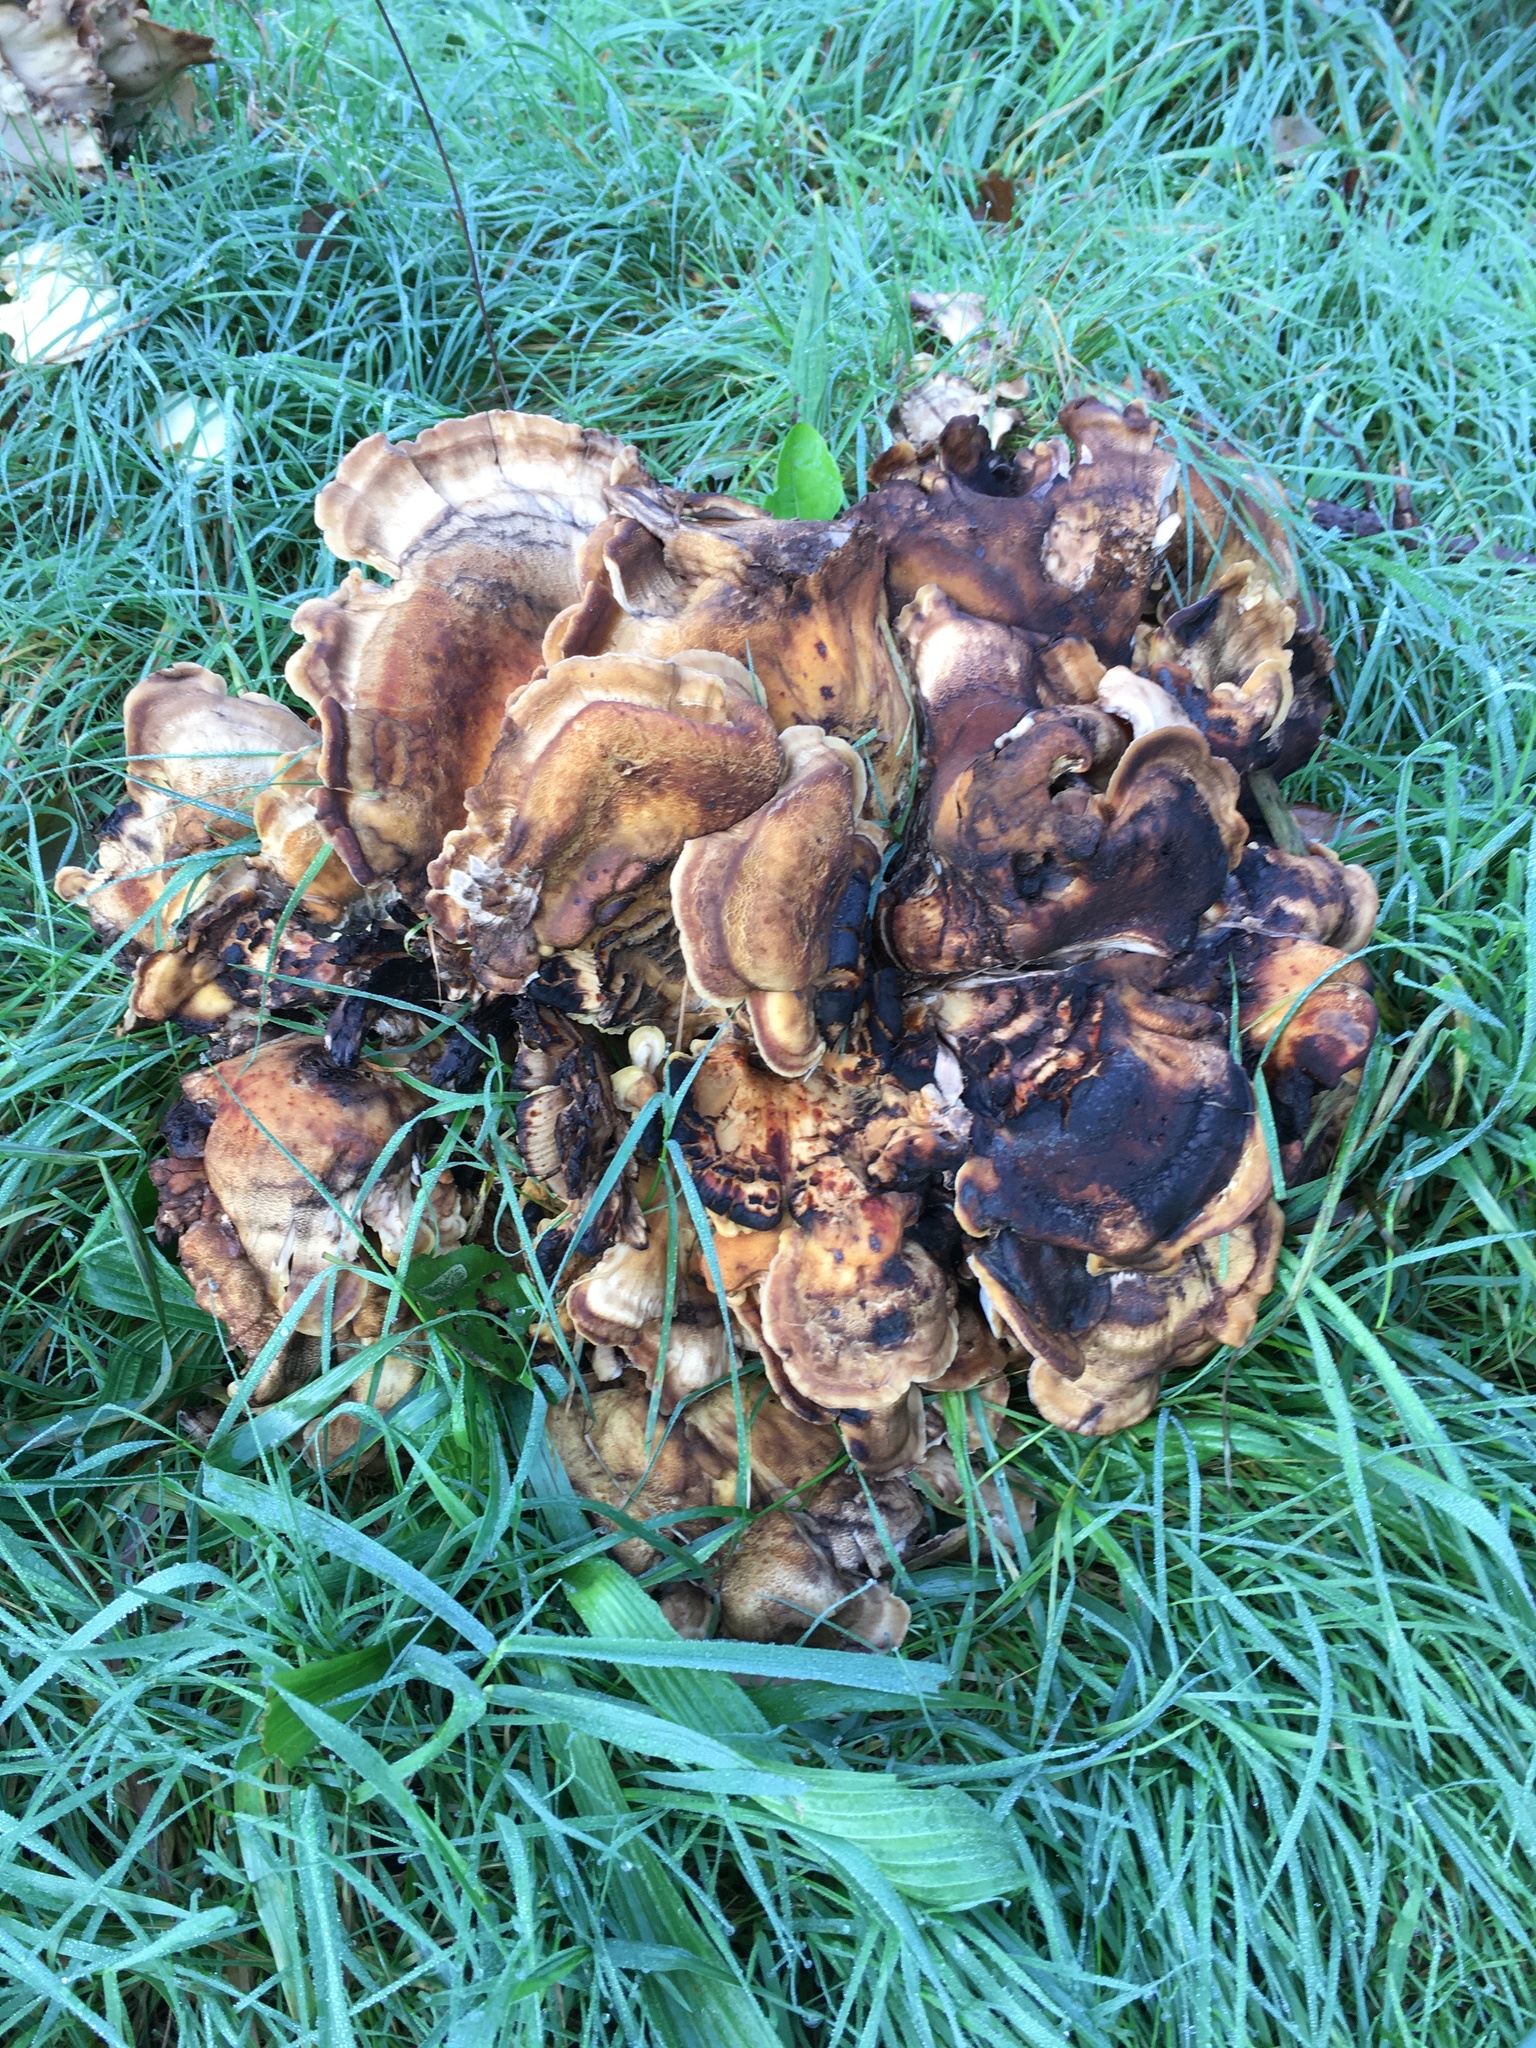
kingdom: Fungi
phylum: Basidiomycota
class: Agaricomycetes
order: Polyporales
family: Meripilaceae
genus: Meripilus
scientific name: Meripilus giganteus
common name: Giant polypore
